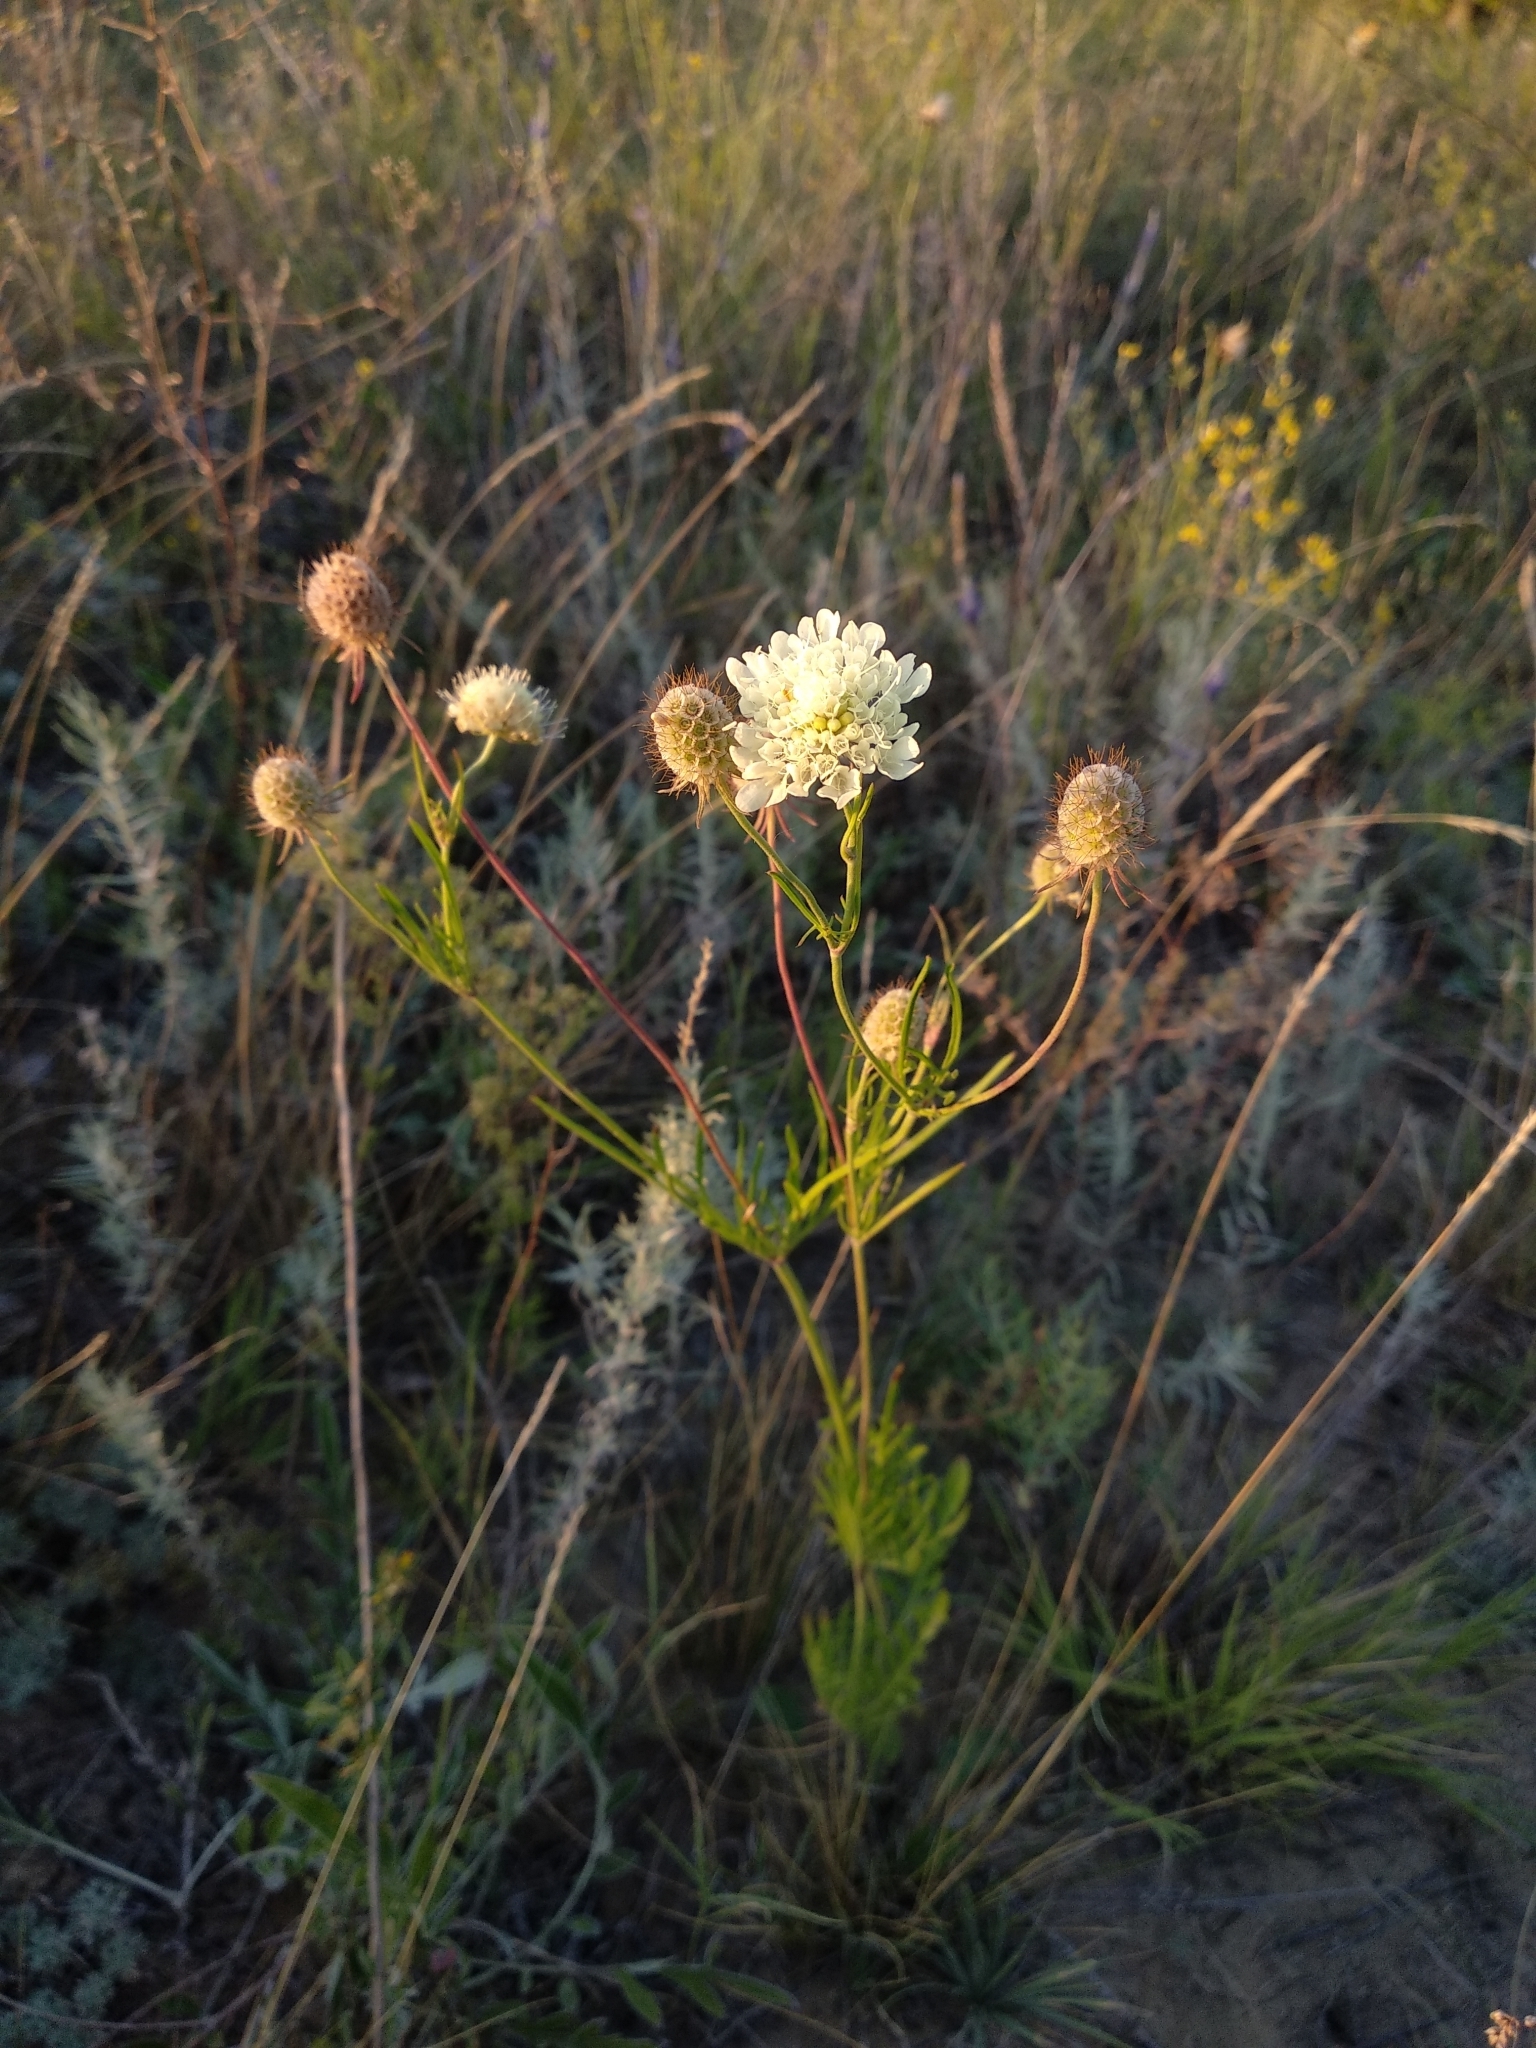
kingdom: Plantae
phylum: Tracheophyta
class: Magnoliopsida
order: Dipsacales
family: Caprifoliaceae
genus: Scabiosa
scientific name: Scabiosa ochroleuca
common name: Cream pincushions
